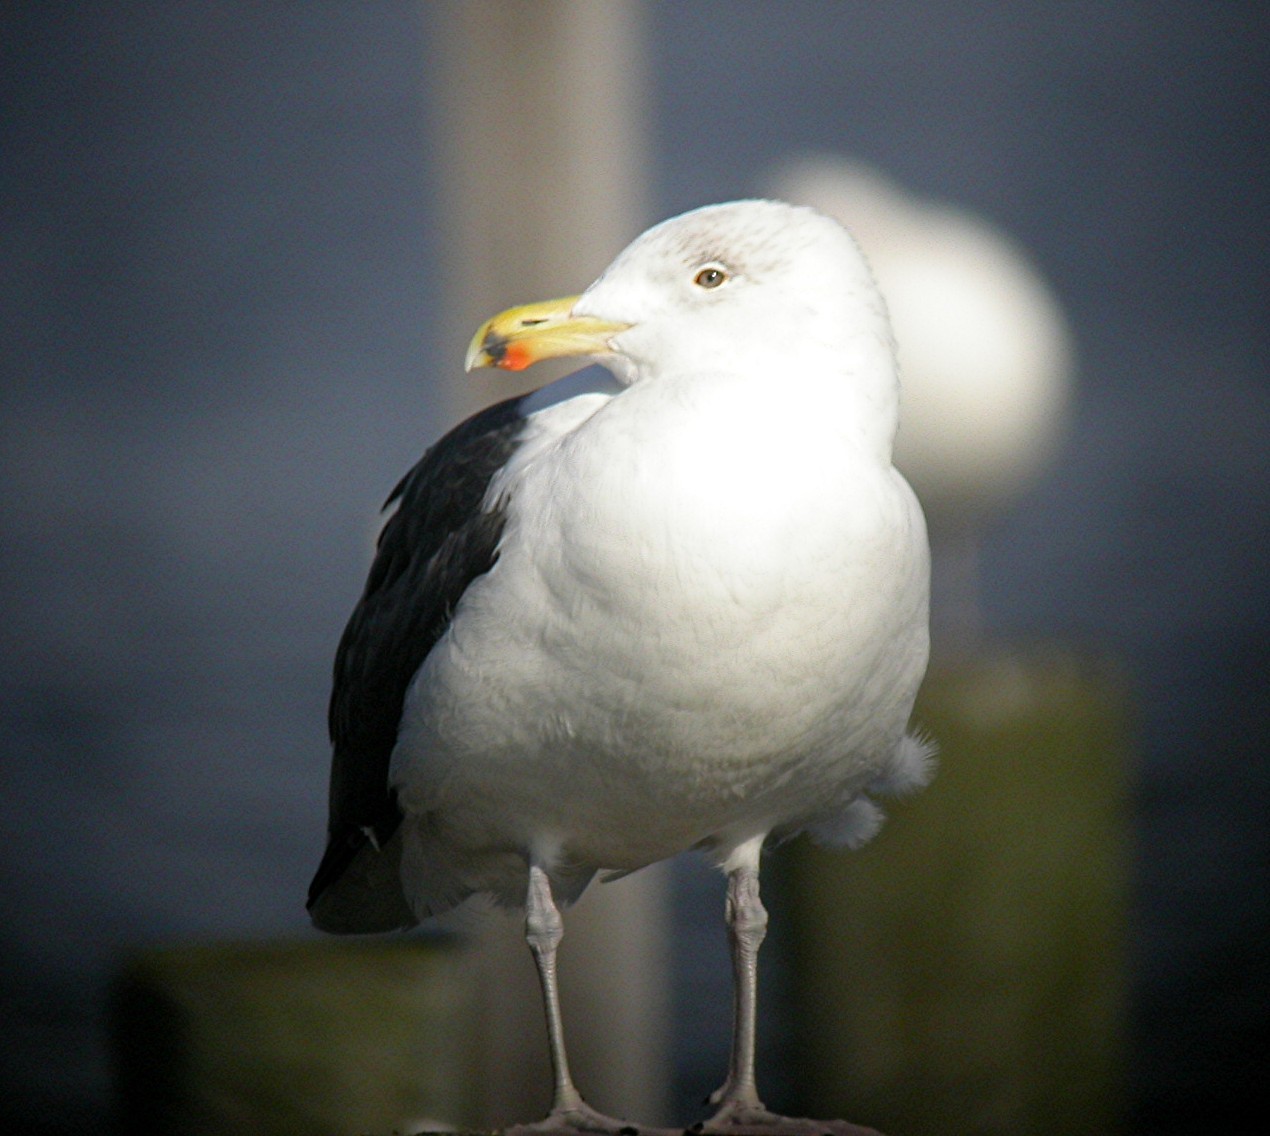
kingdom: Animalia
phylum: Chordata
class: Aves
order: Charadriiformes
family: Laridae
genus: Larus
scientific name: Larus marinus
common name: Great black-backed gull
